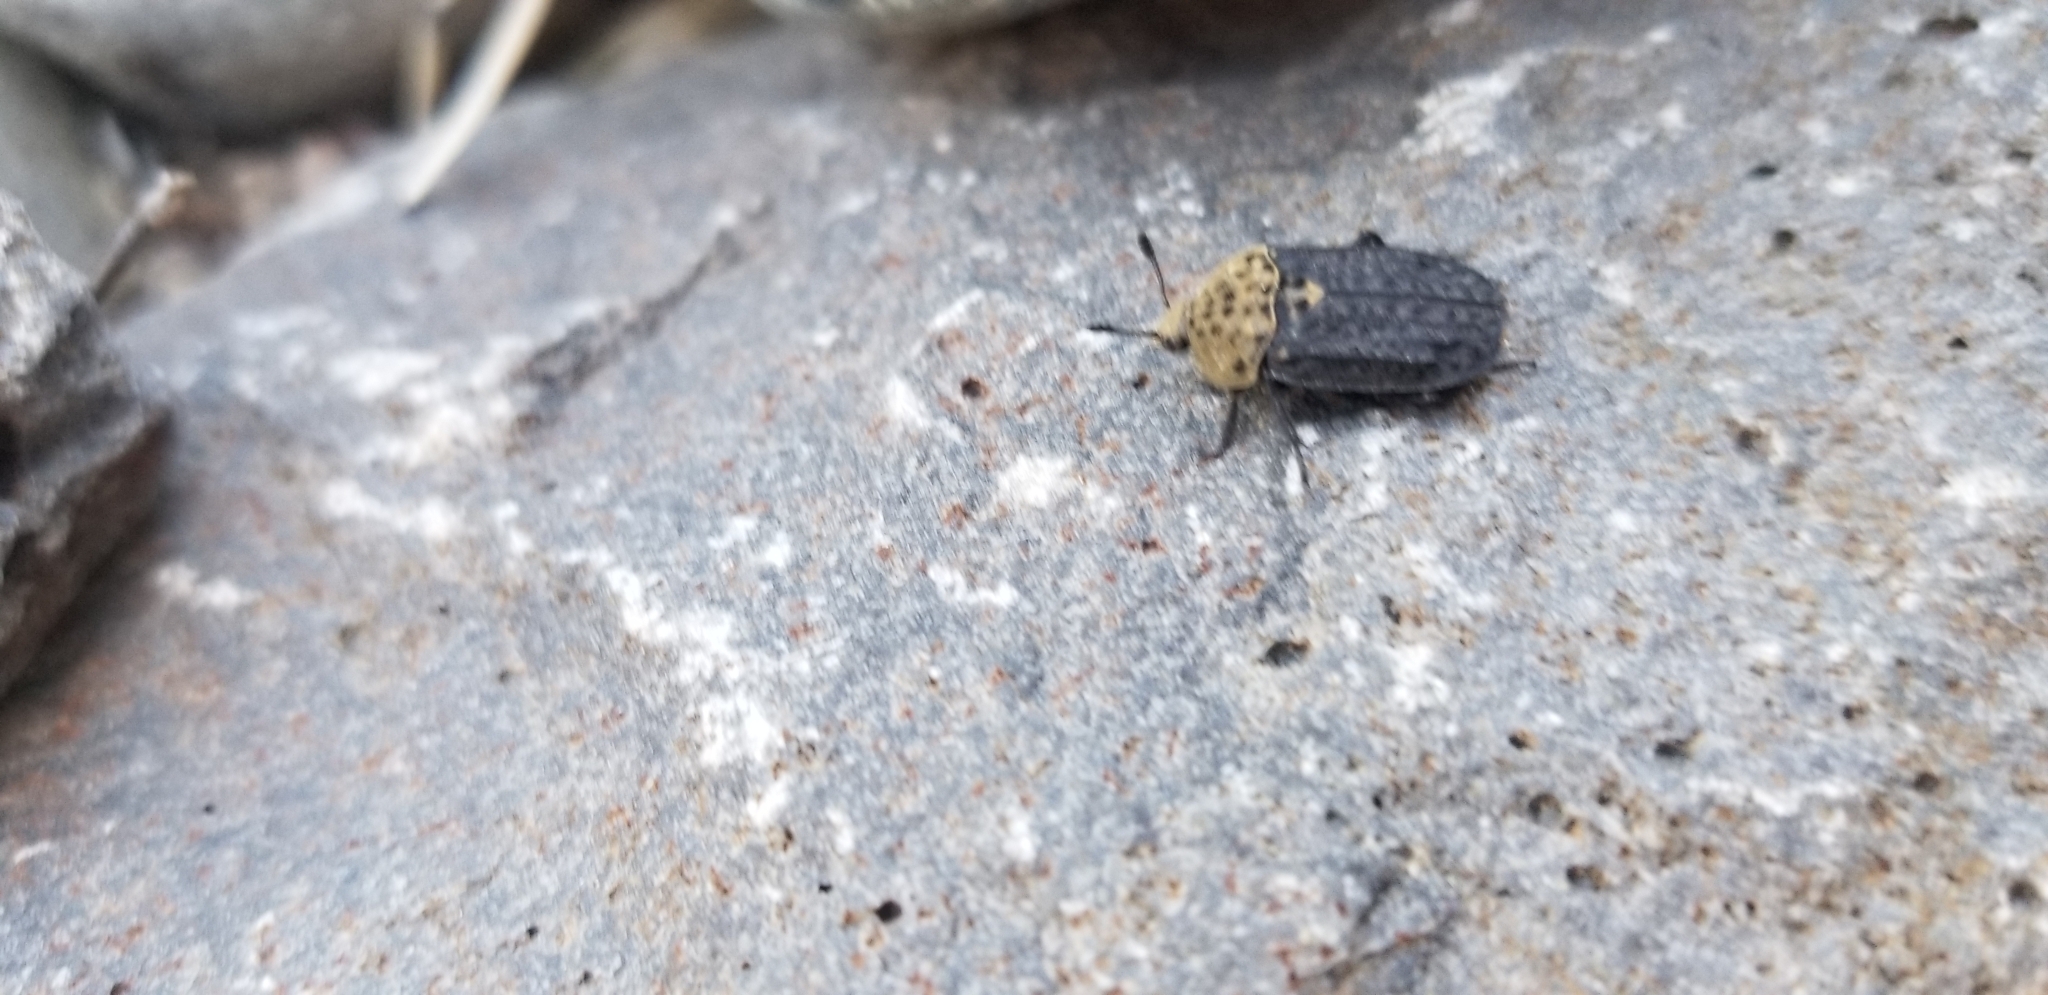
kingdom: Animalia
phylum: Arthropoda
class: Insecta
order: Coleoptera
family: Staphylinidae
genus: Thanatophilus
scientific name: Thanatophilus lapponicus
